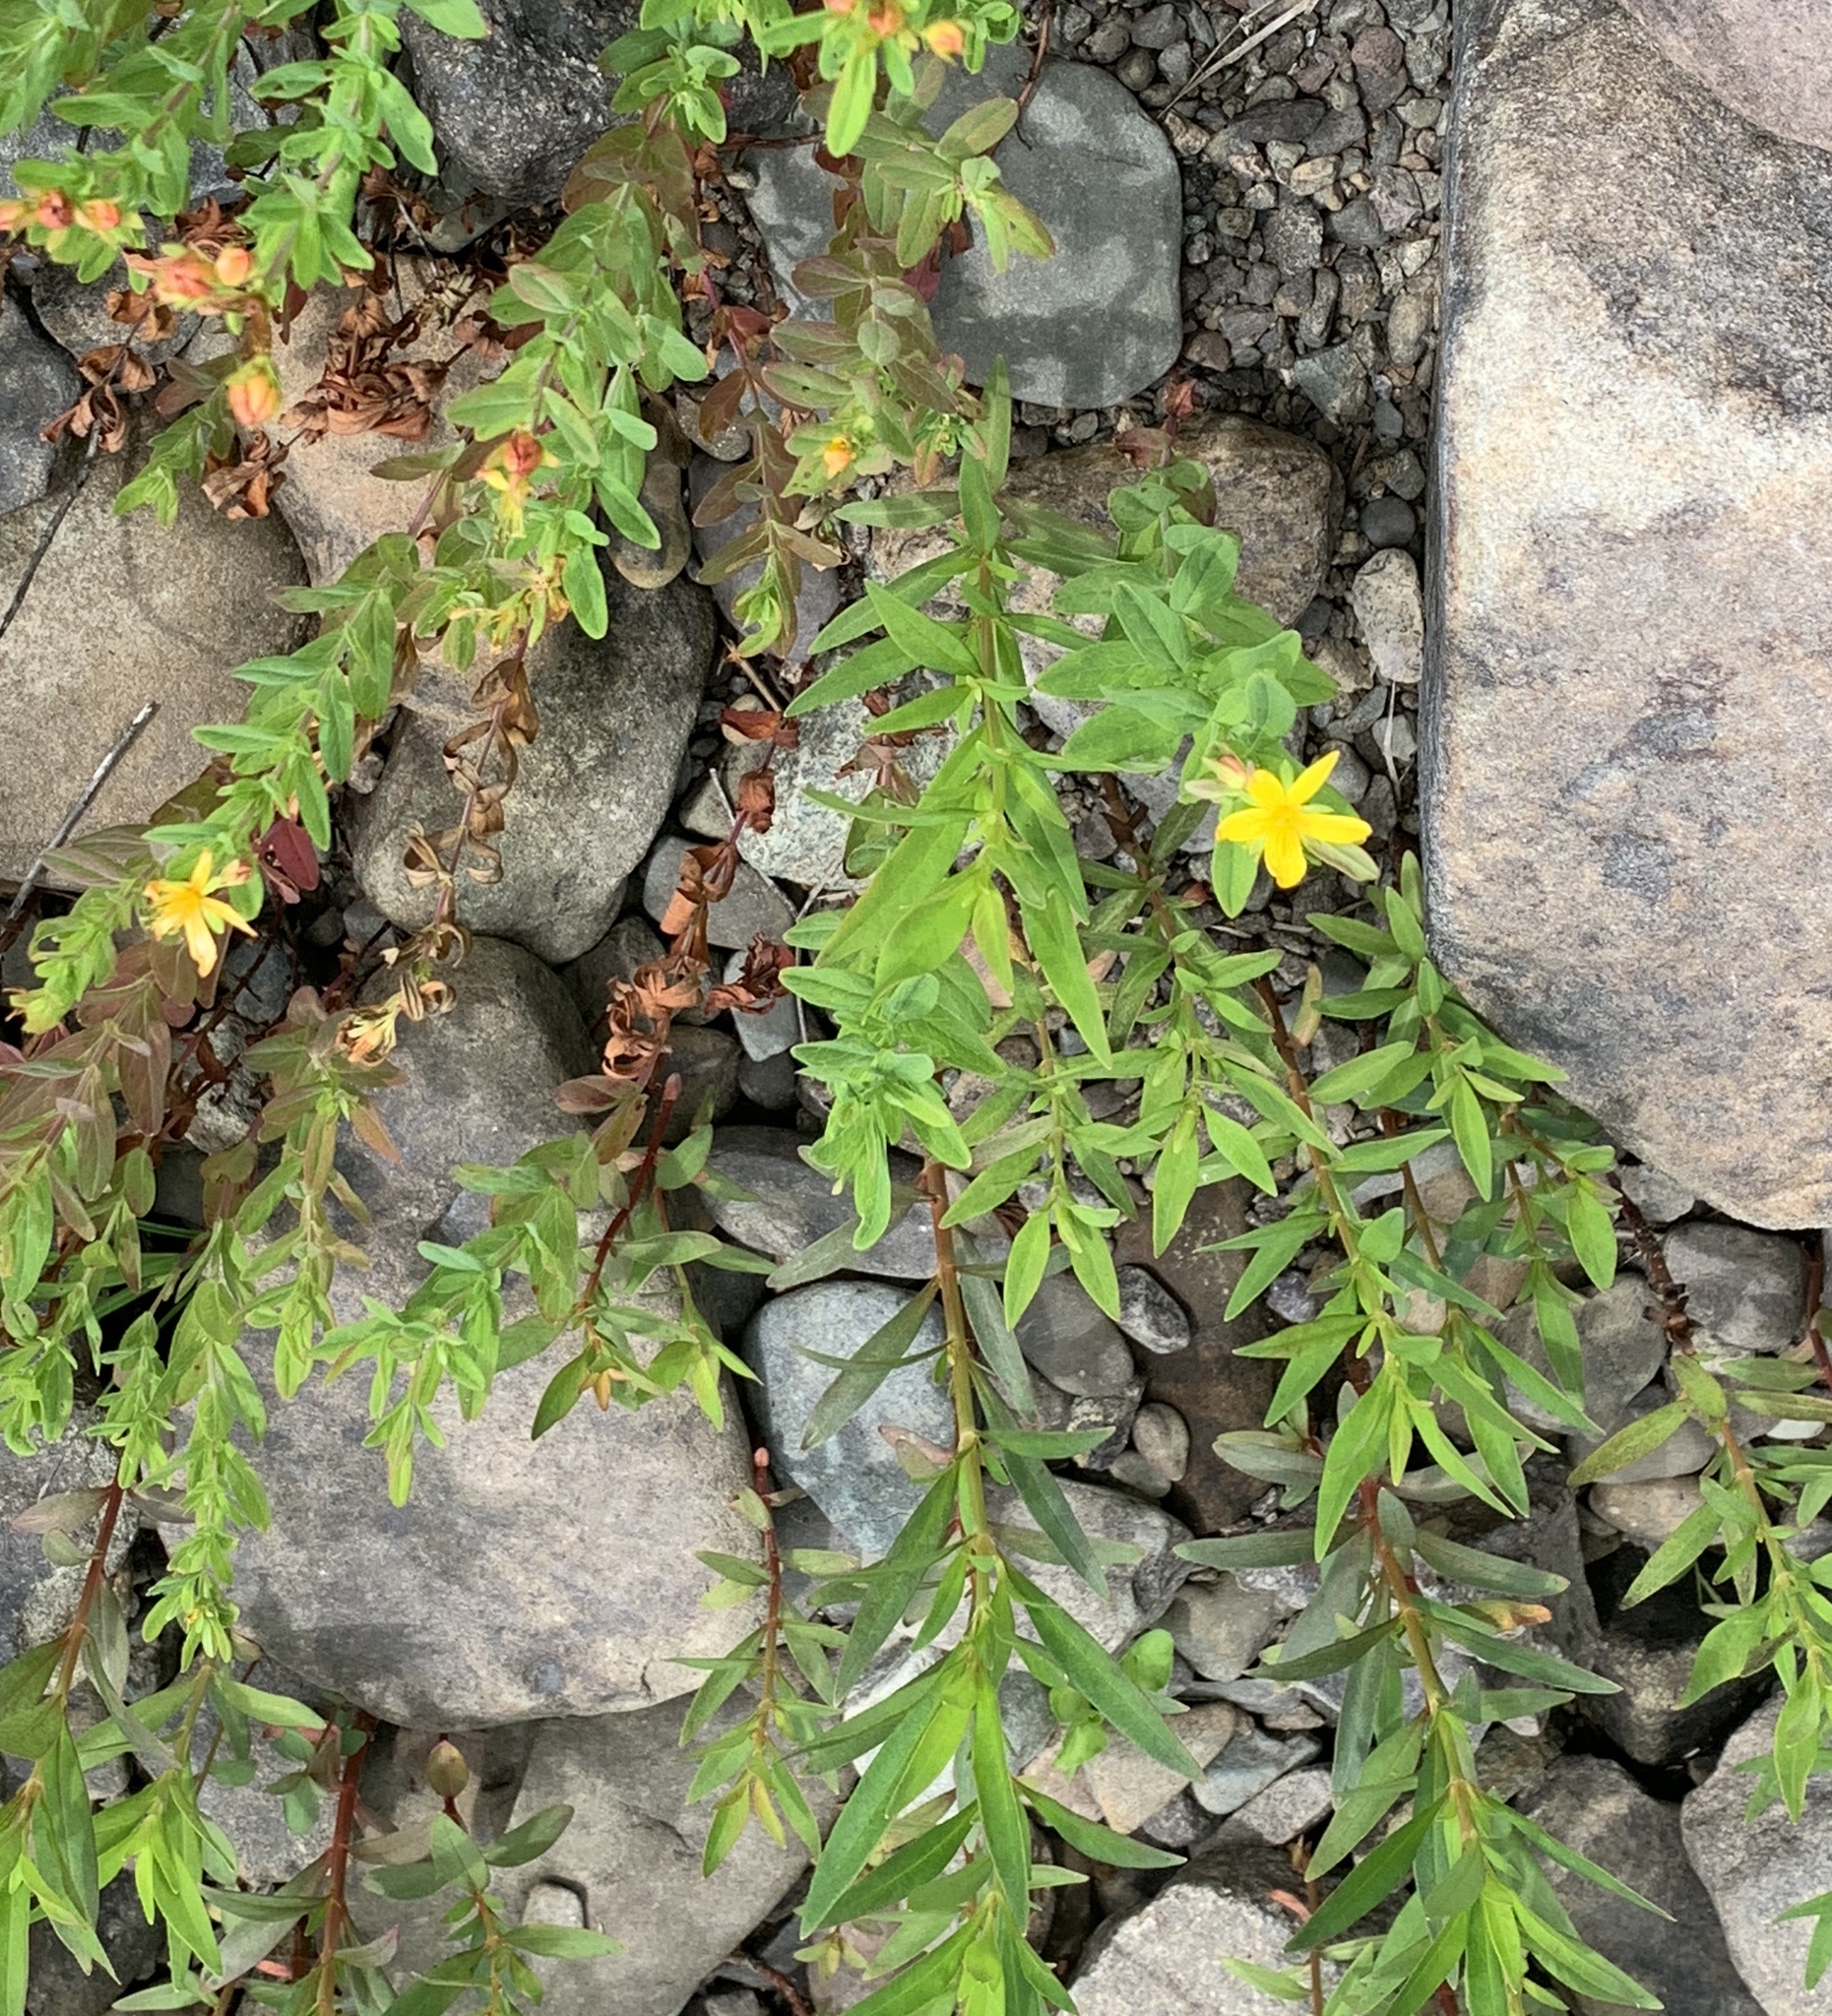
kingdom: Plantae
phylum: Tracheophyta
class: Magnoliopsida
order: Malpighiales
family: Hypericaceae
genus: Hypericum
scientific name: Hypericum ellipticum
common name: Elliptic st. john's-wort
